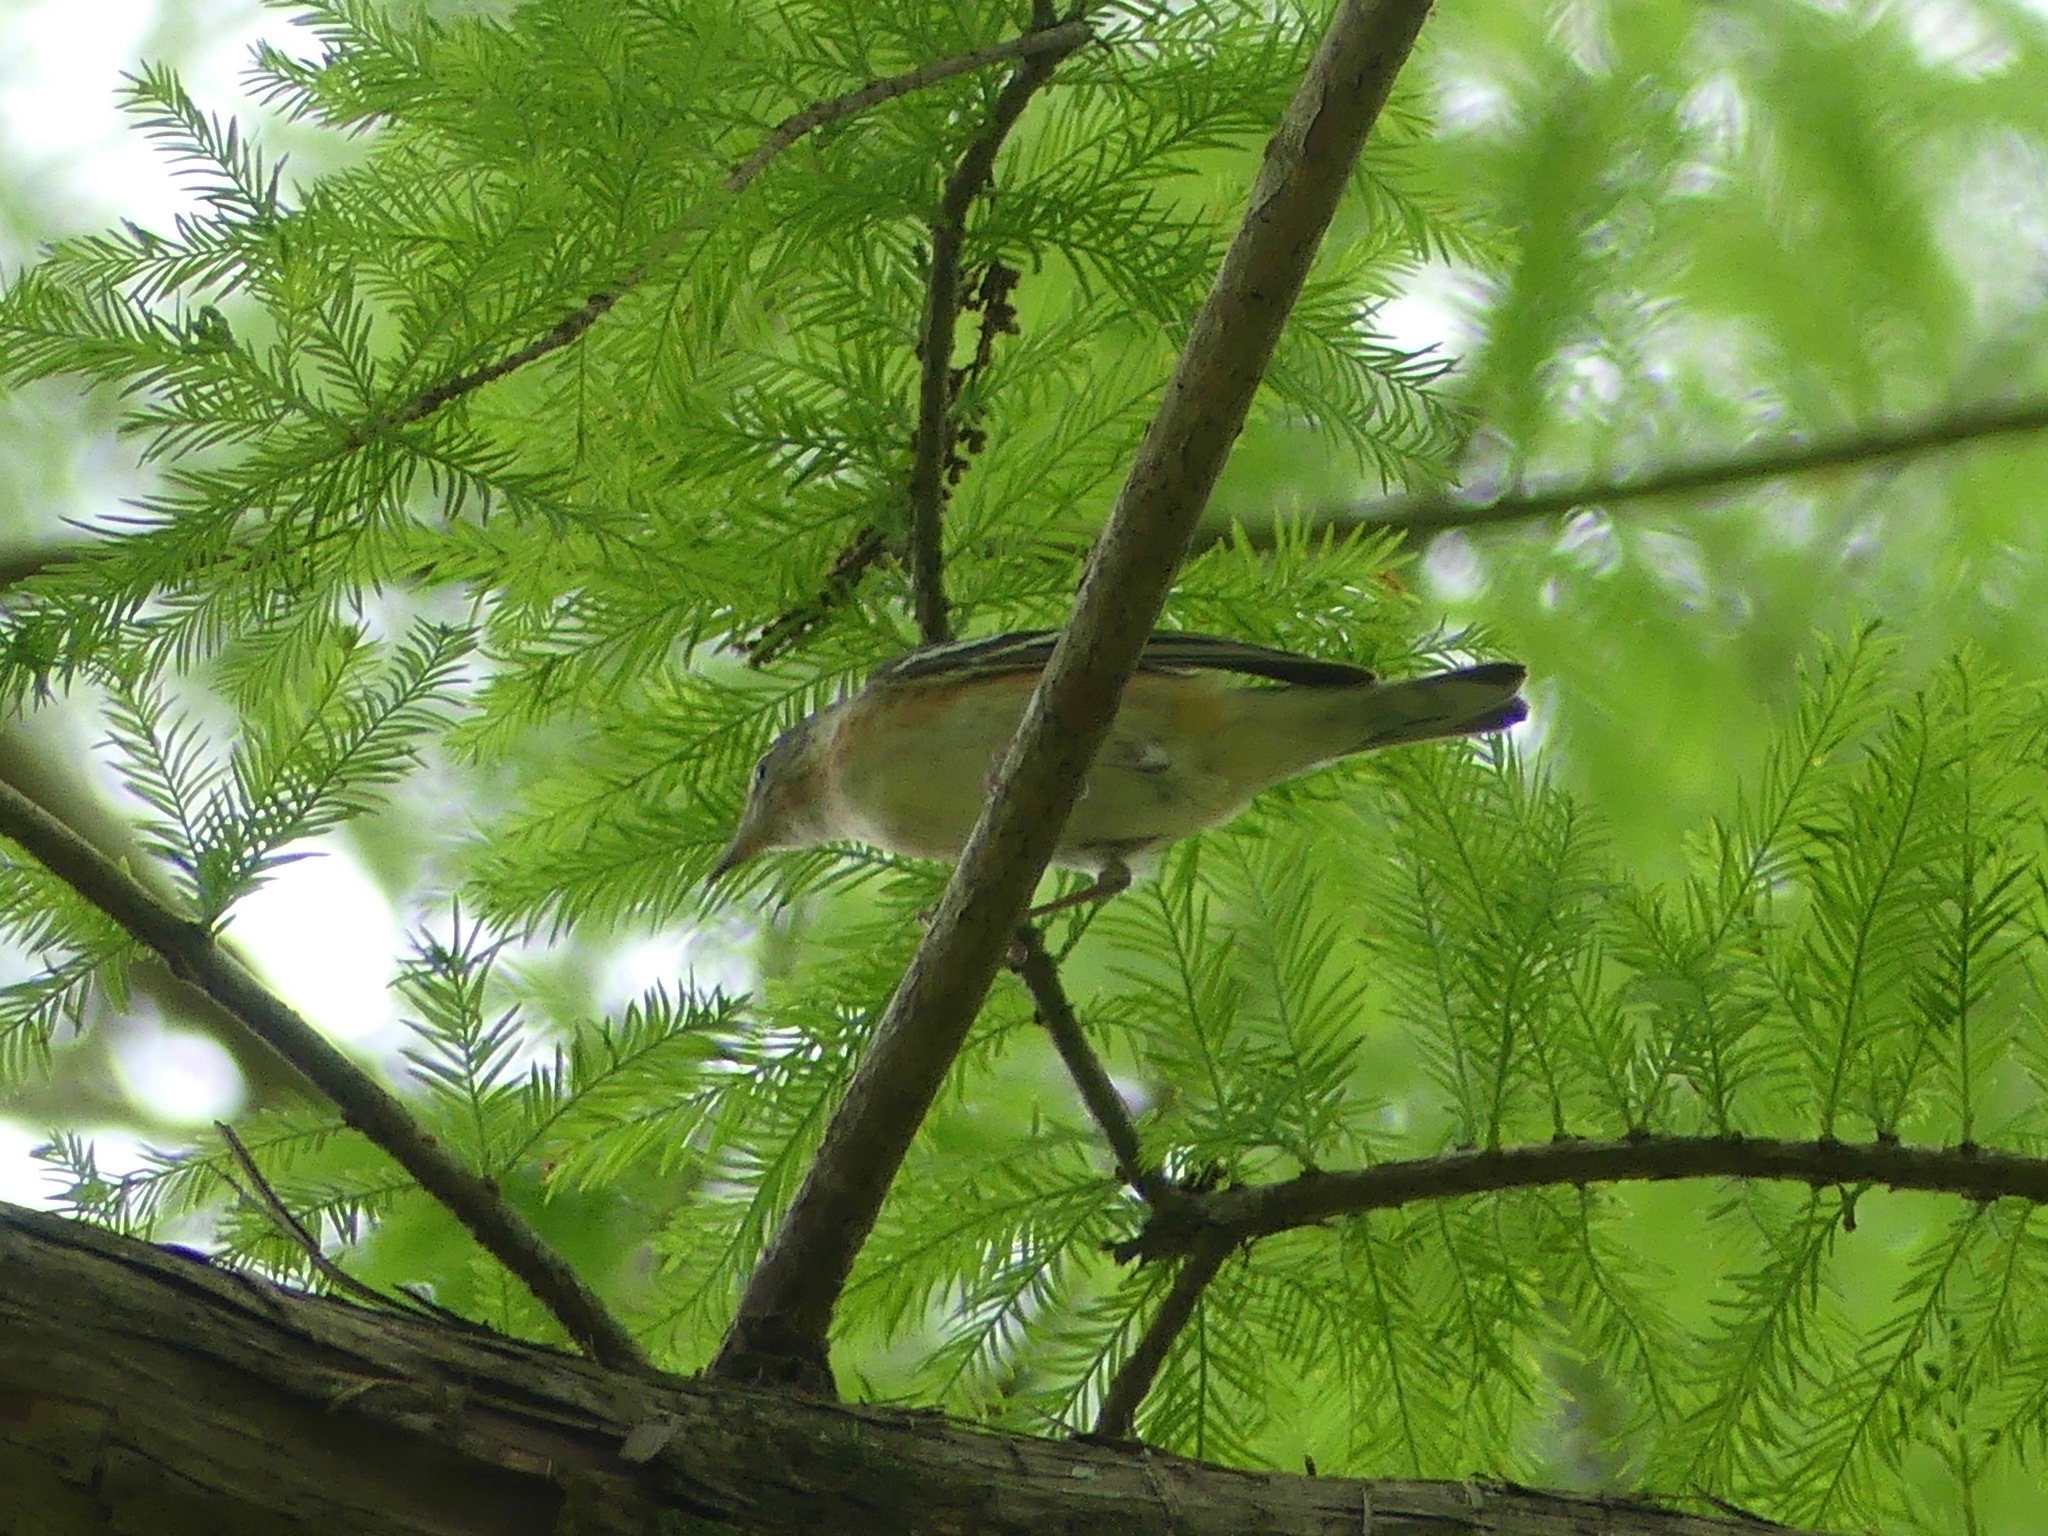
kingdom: Animalia
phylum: Chordata
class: Aves
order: Passeriformes
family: Parulidae
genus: Setophaga
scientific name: Setophaga castanea
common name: Bay-breasted warbler
